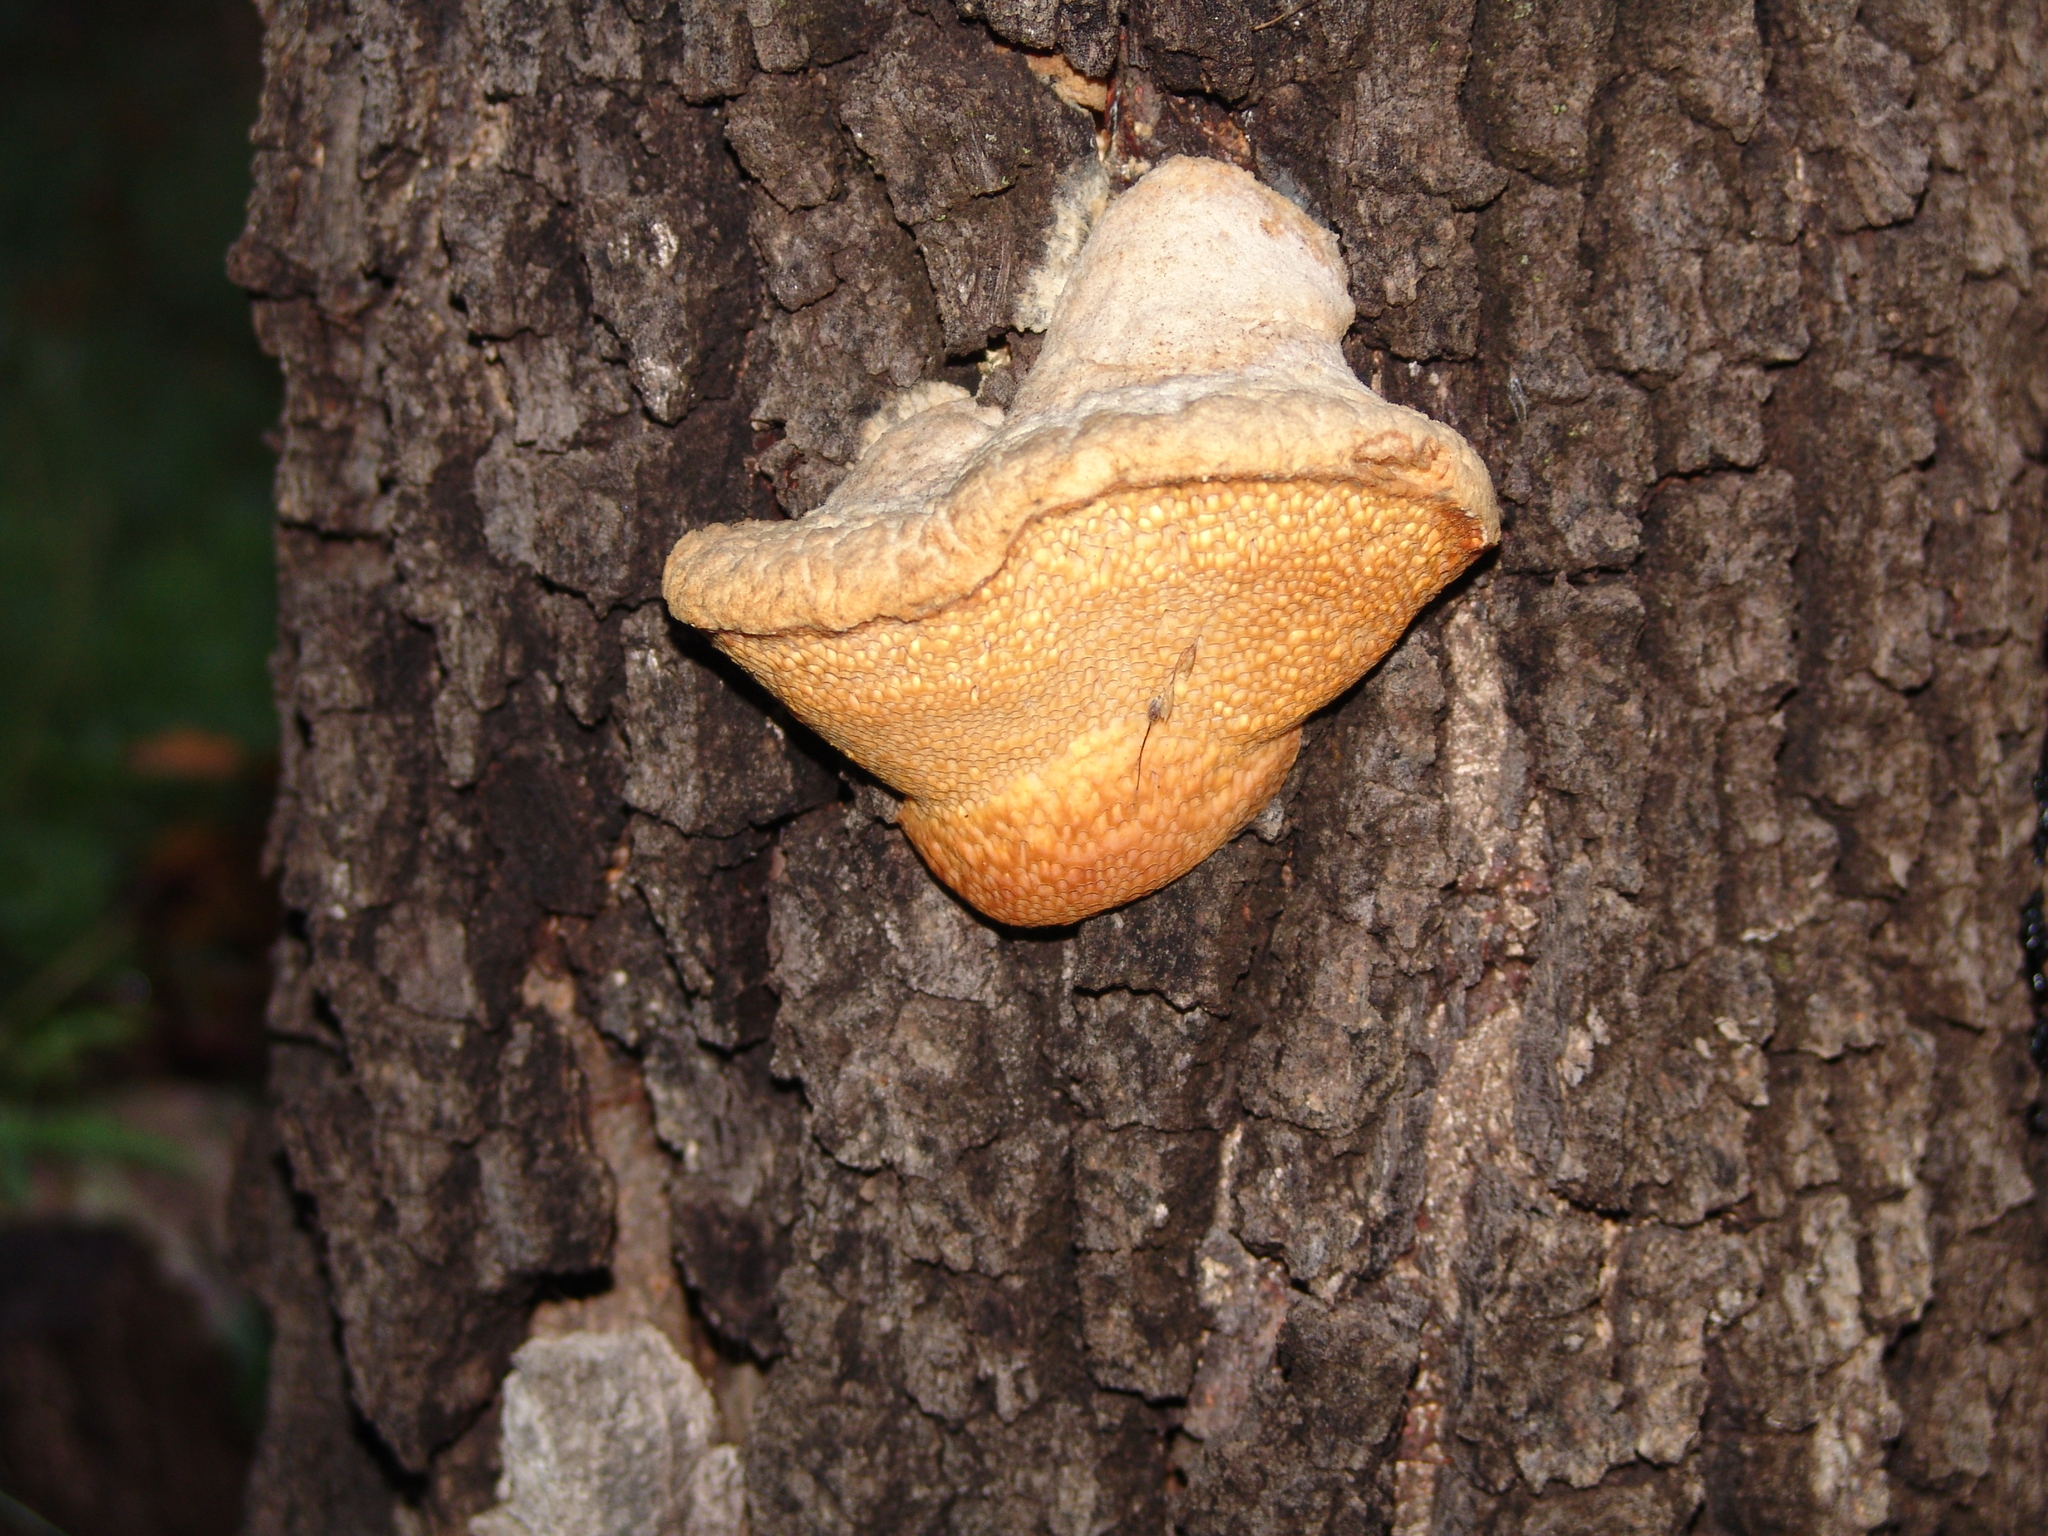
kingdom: Fungi
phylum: Basidiomycota
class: Agaricomycetes
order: Polyporales
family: Meruliaceae
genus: Spongipellis
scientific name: Spongipellis
